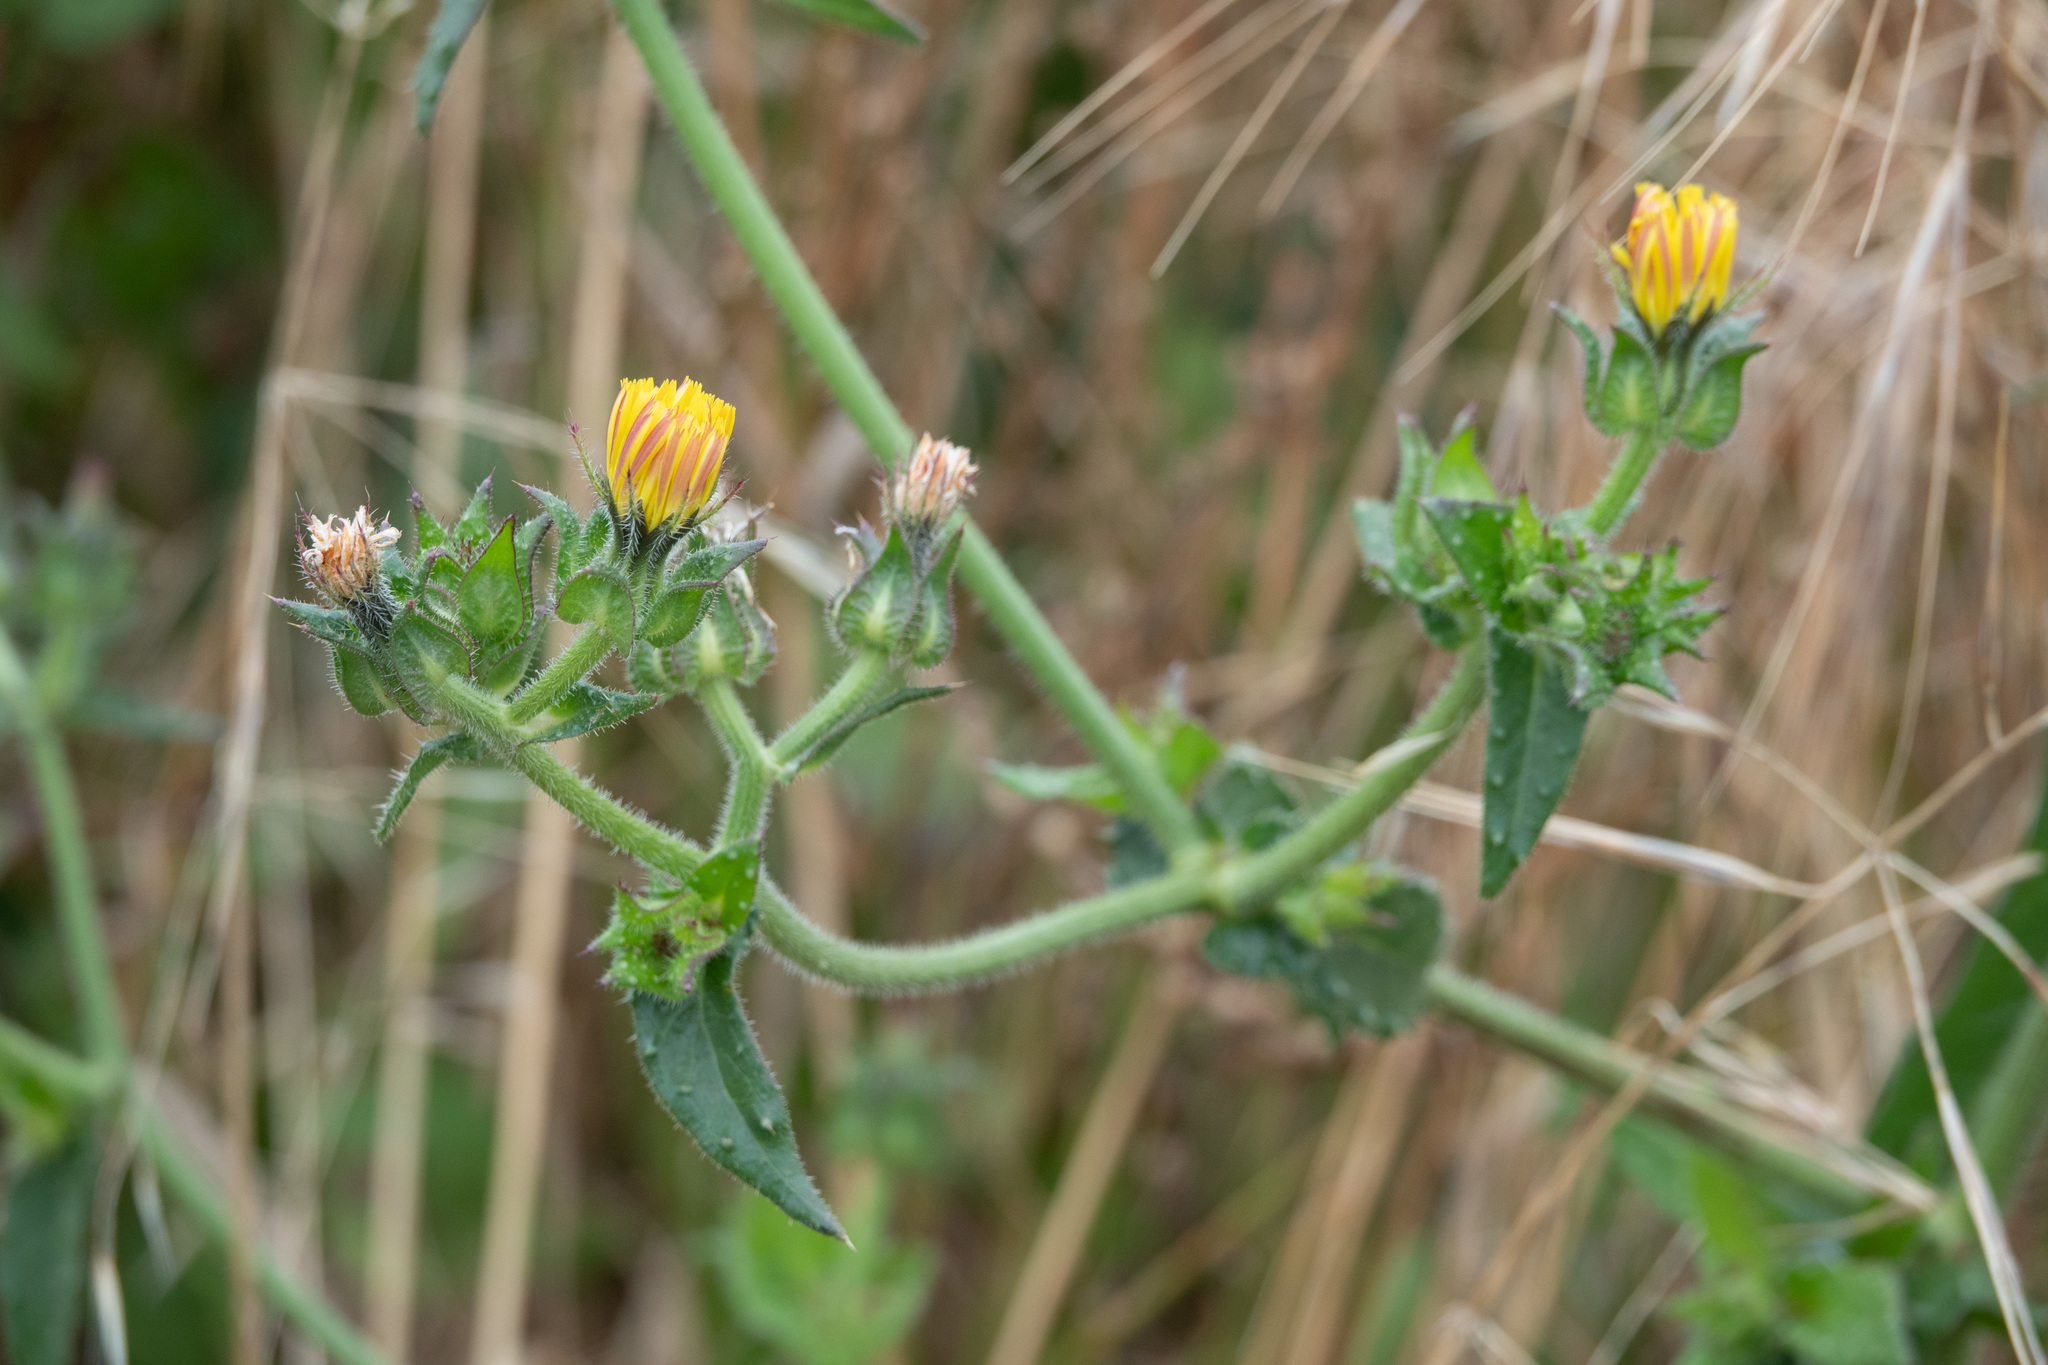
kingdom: Plantae
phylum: Tracheophyta
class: Magnoliopsida
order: Asterales
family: Asteraceae
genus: Helminthotheca
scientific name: Helminthotheca echioides
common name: Ox-tongue
